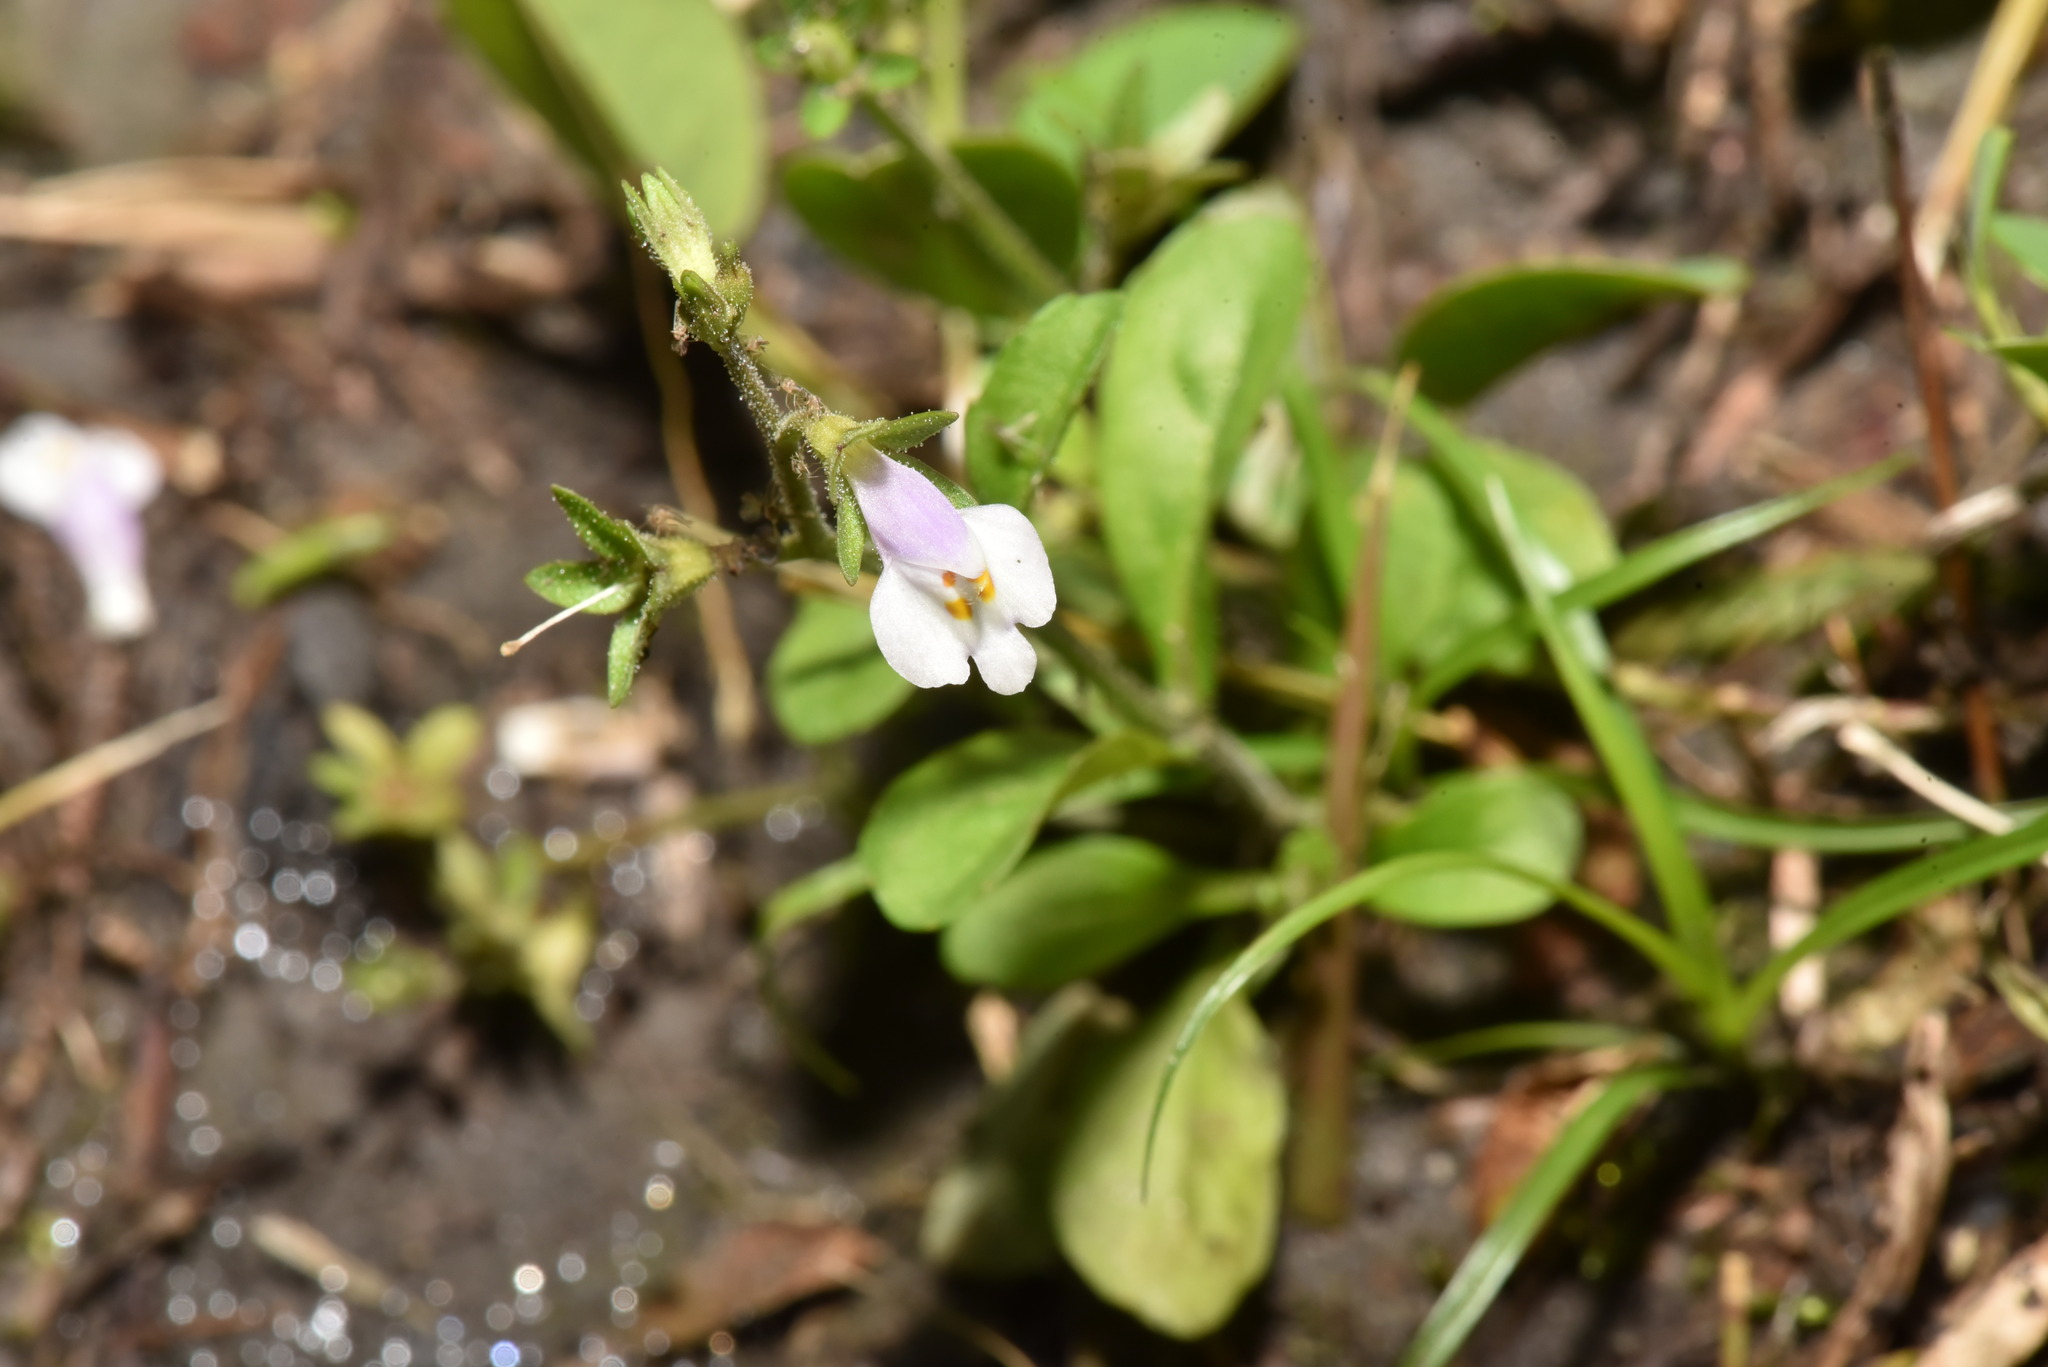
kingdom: Plantae
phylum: Tracheophyta
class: Magnoliopsida
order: Lamiales
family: Mazaceae
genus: Mazus
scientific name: Mazus pumilus
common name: Japanese mazus
